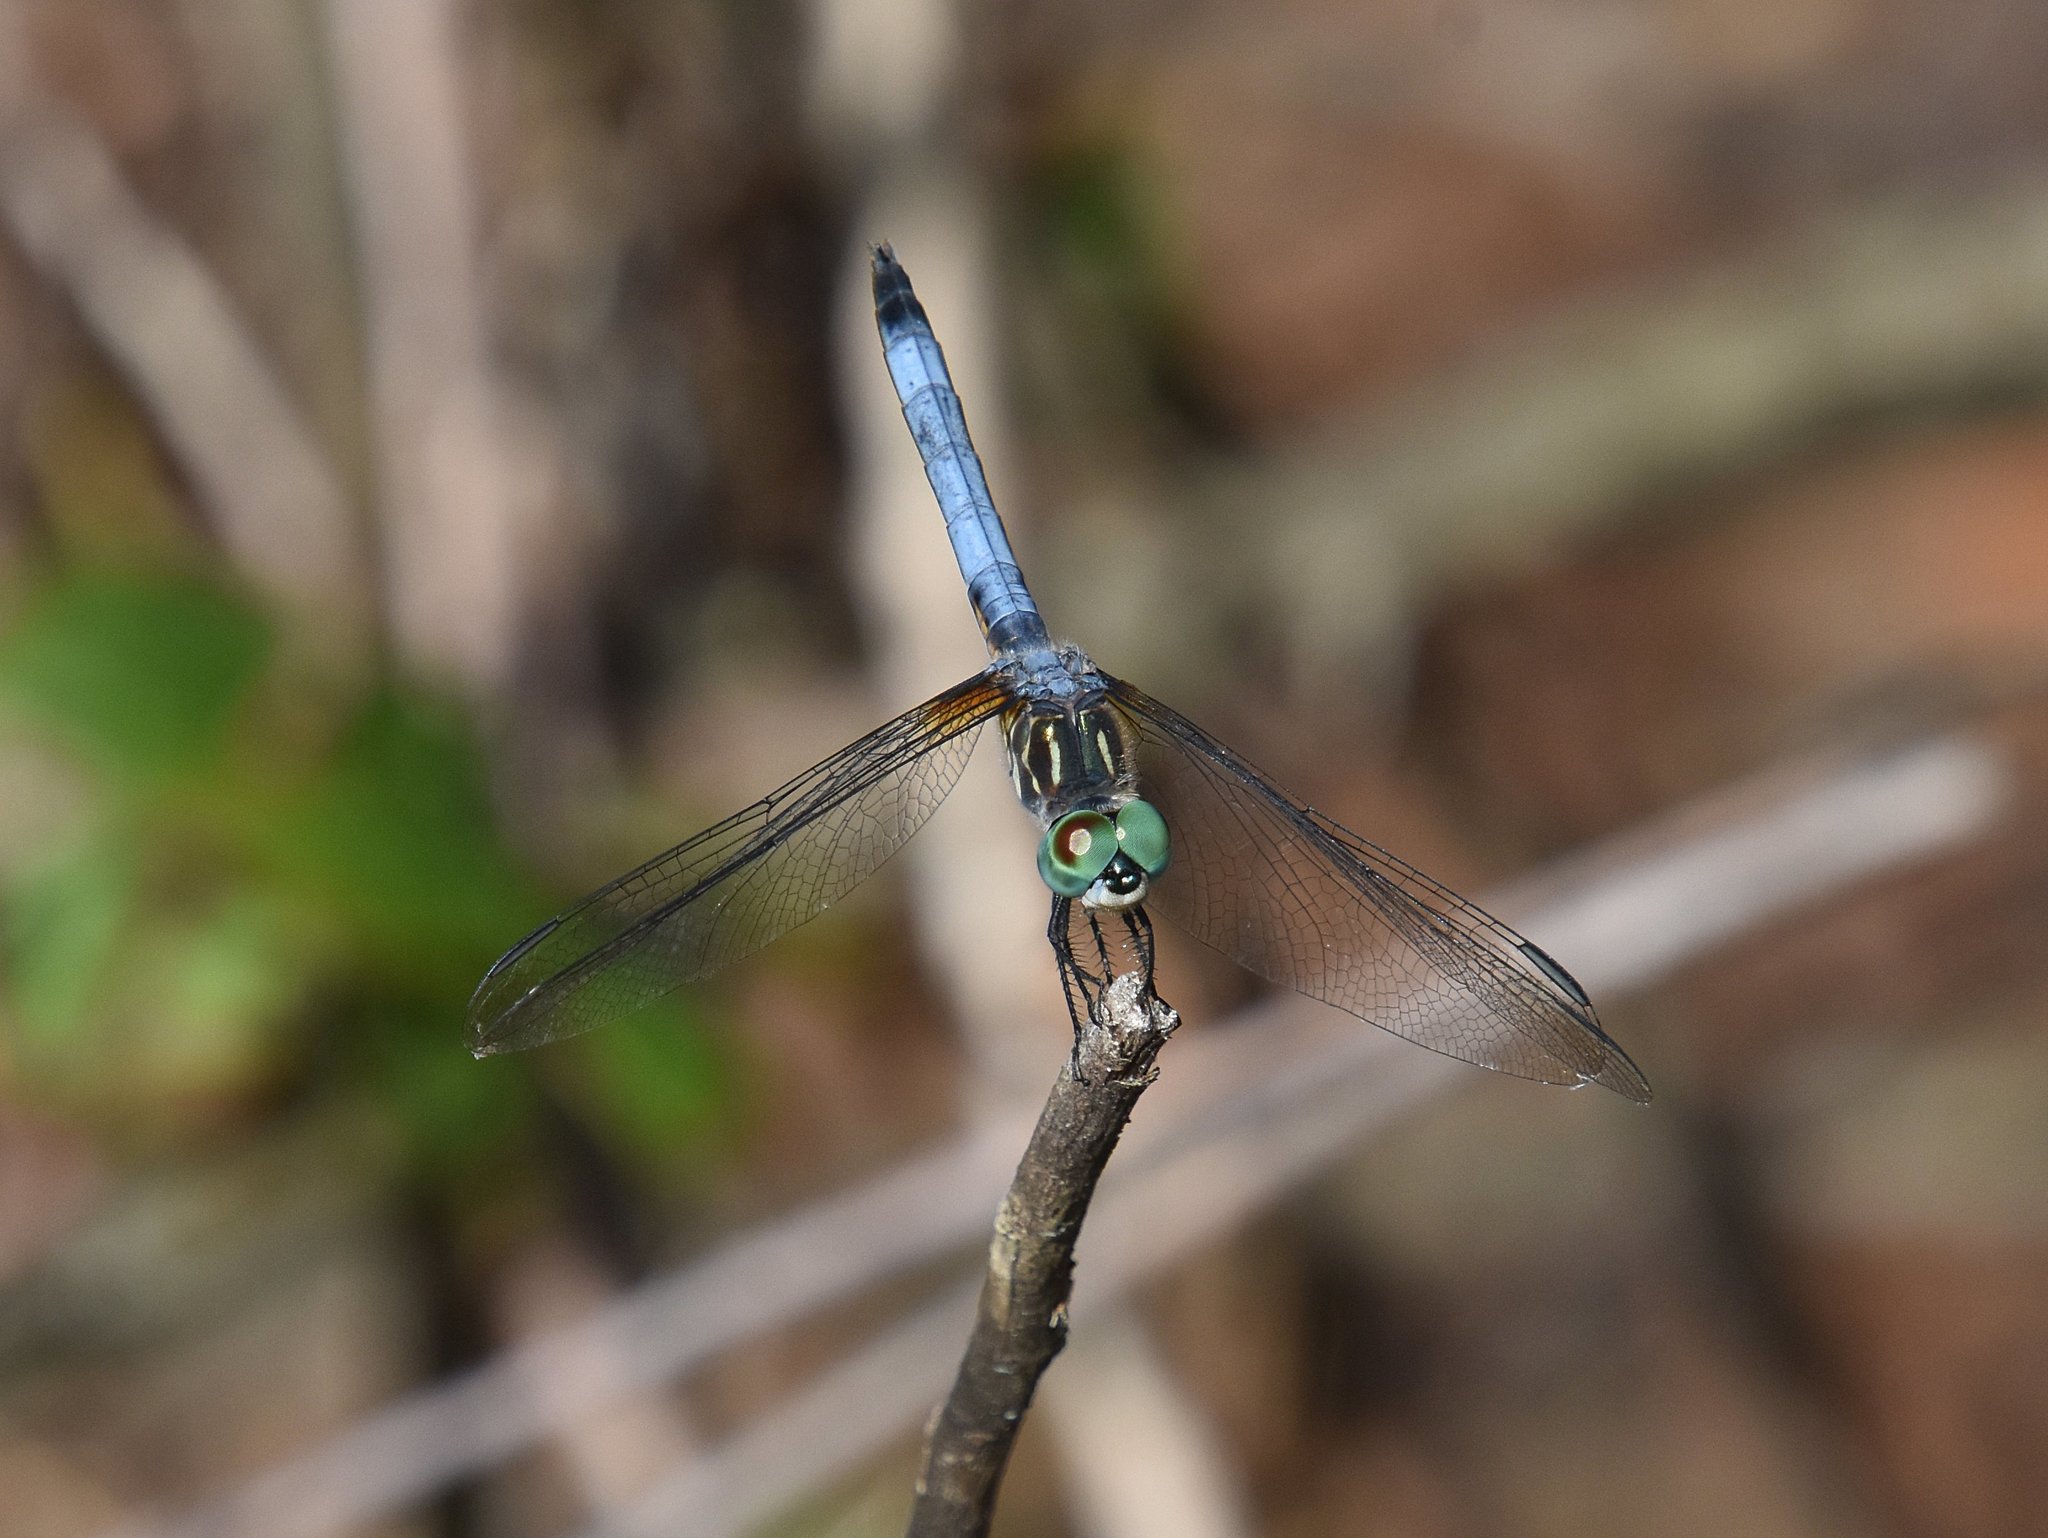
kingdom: Animalia
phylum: Arthropoda
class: Insecta
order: Odonata
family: Libellulidae
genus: Pachydiplax
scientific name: Pachydiplax longipennis
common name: Blue dasher
